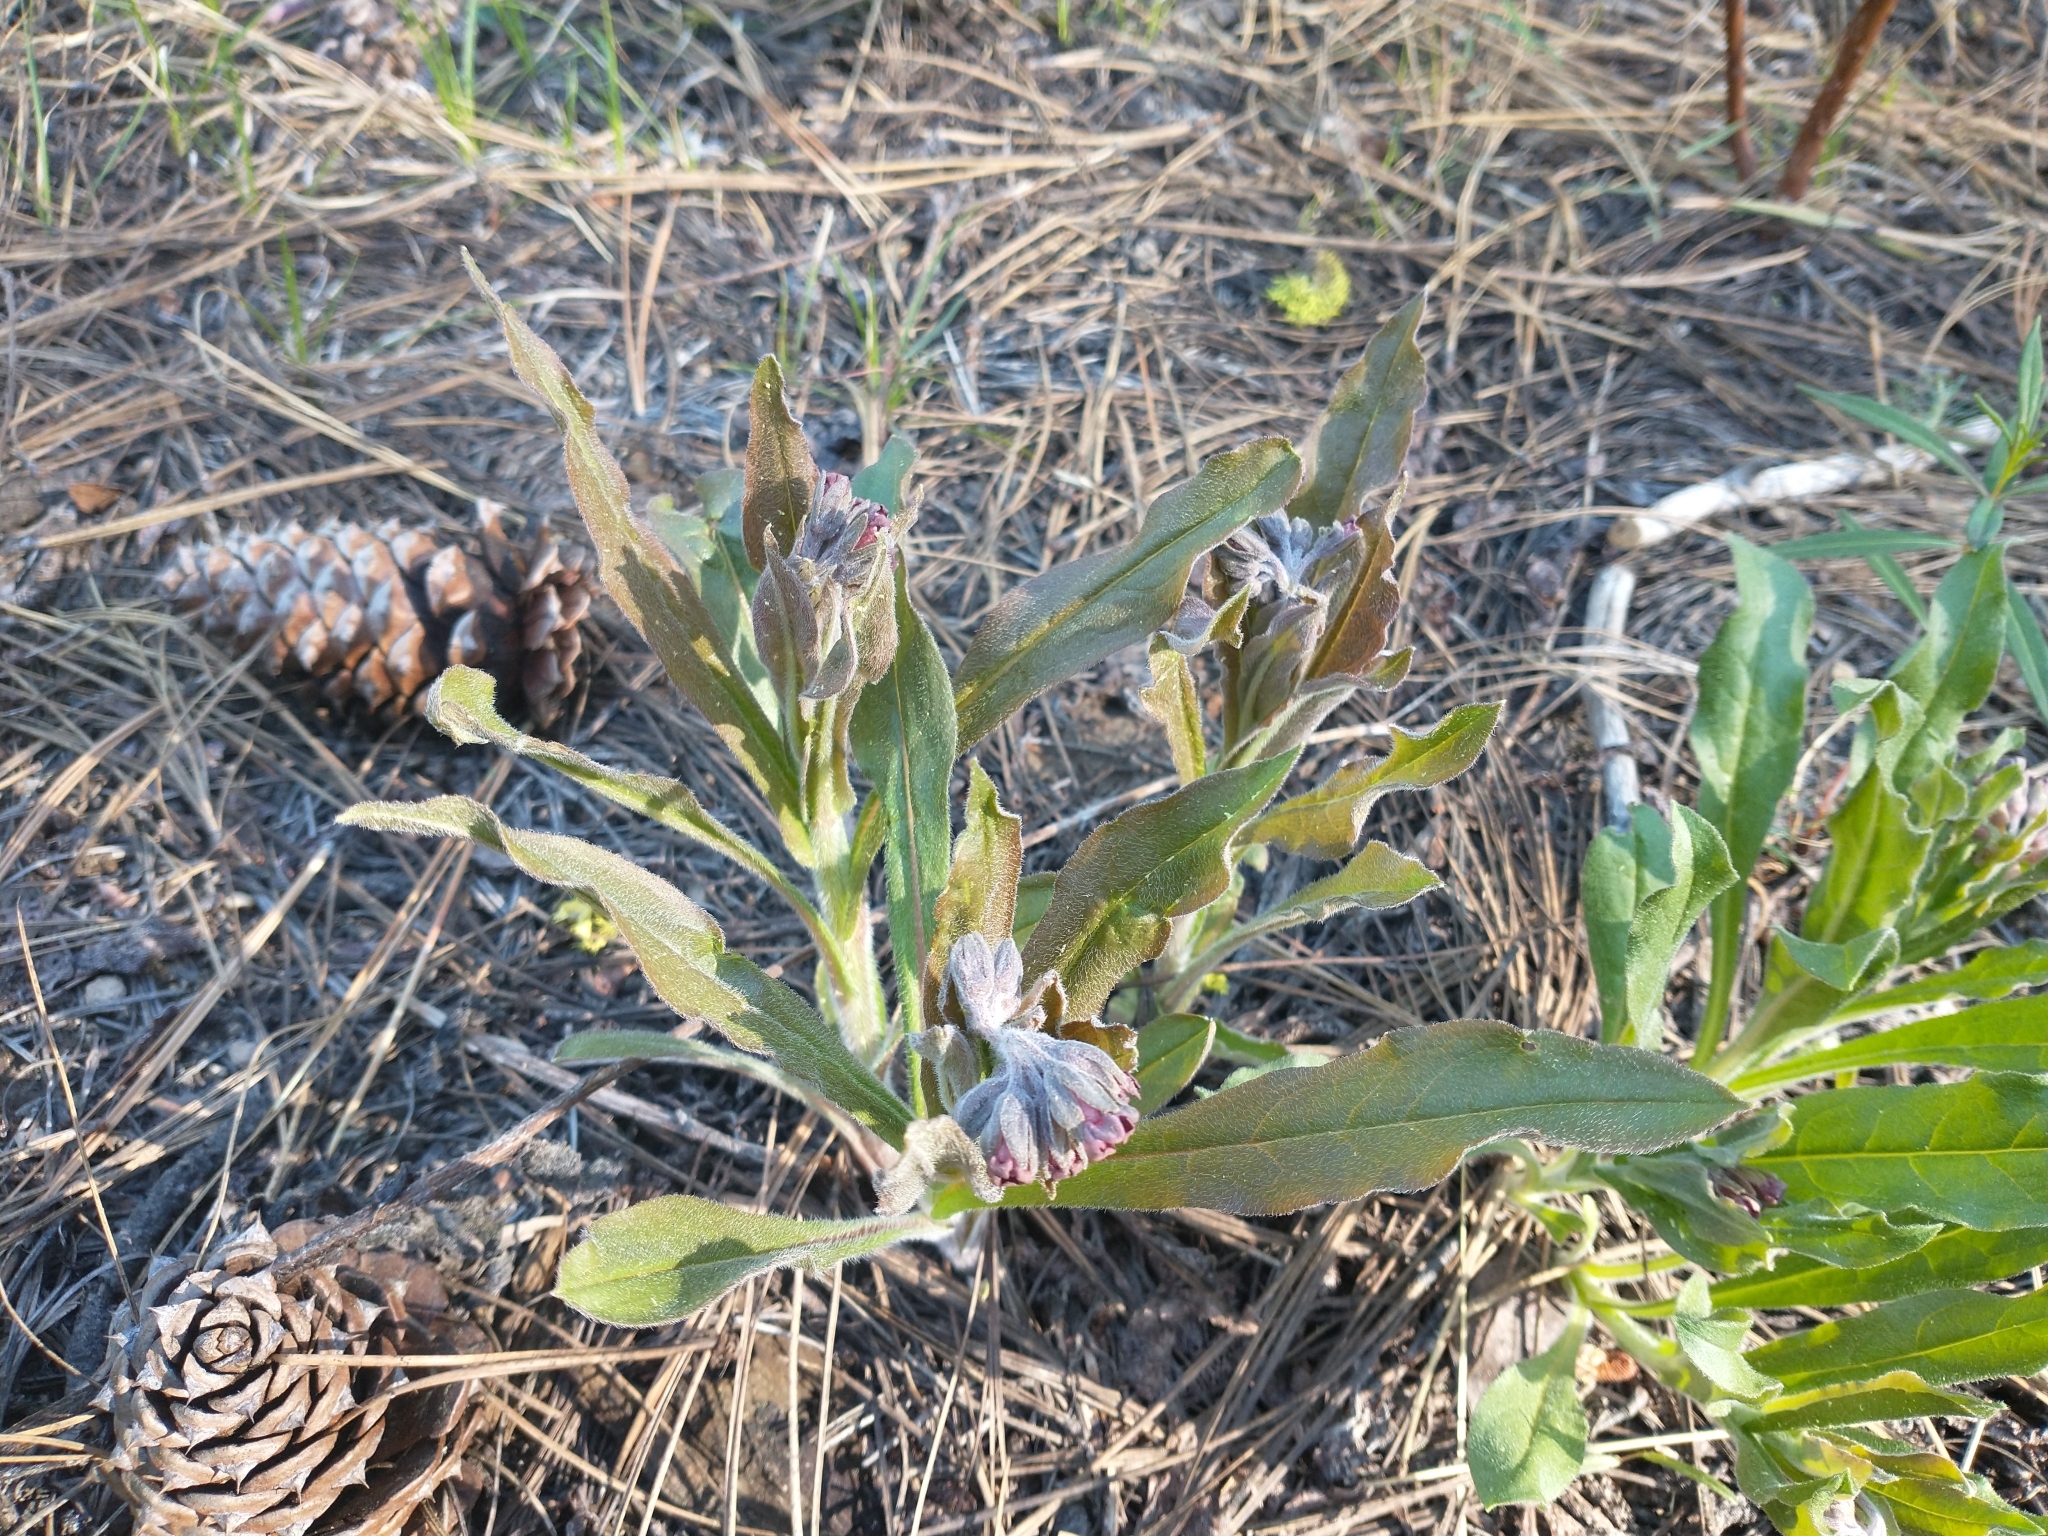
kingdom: Plantae
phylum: Tracheophyta
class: Magnoliopsida
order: Boraginales
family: Boraginaceae
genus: Andersonglossum
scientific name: Andersonglossum occidentale
